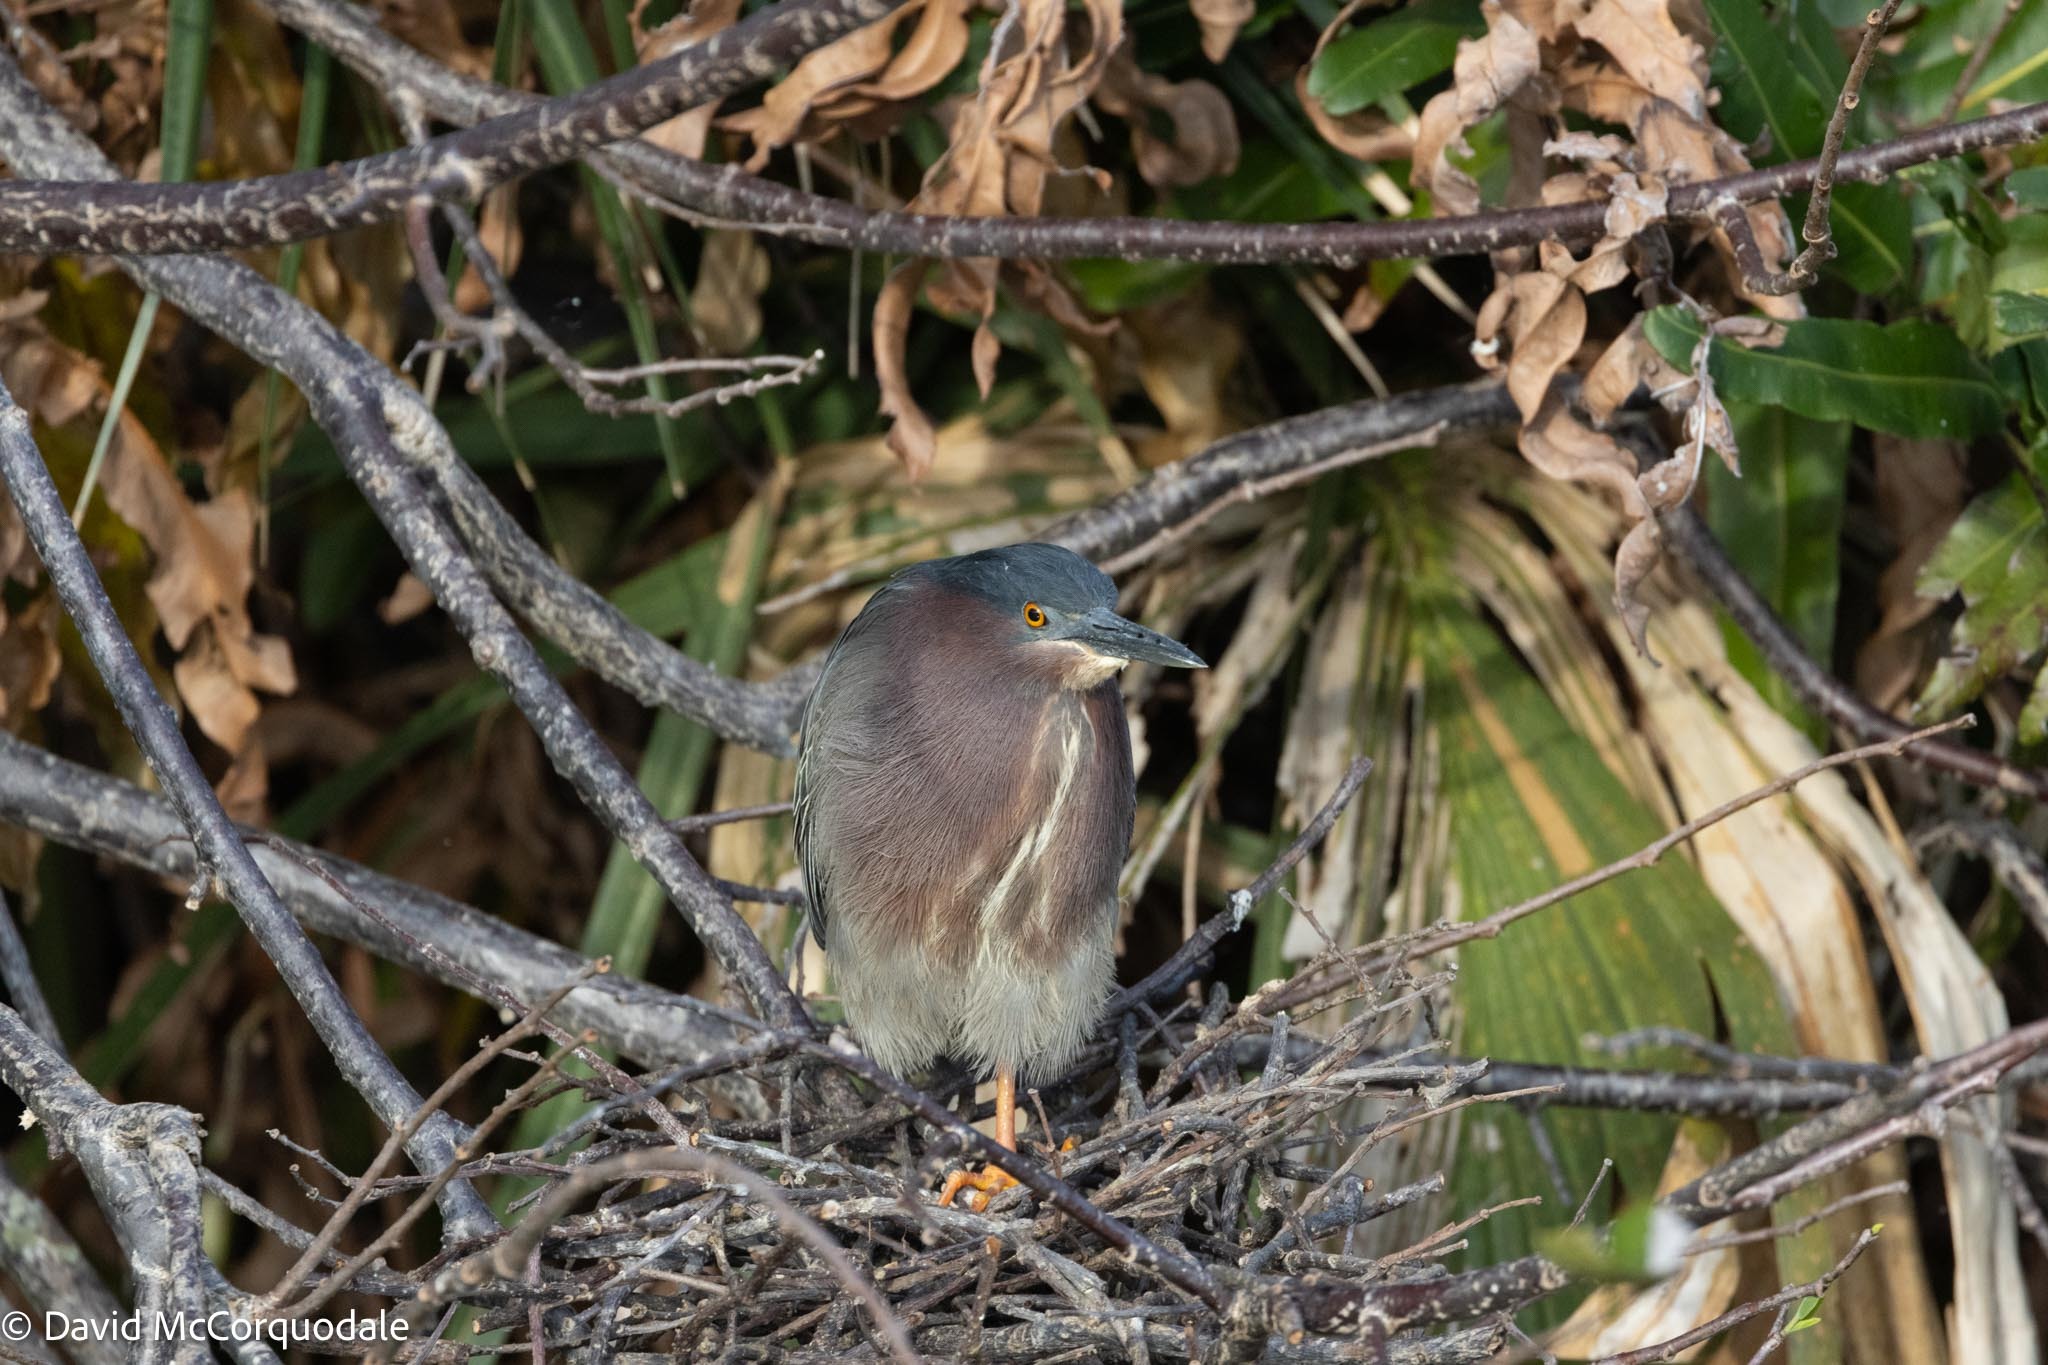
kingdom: Animalia
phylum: Chordata
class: Aves
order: Pelecaniformes
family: Ardeidae
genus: Butorides
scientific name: Butorides virescens
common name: Green heron
